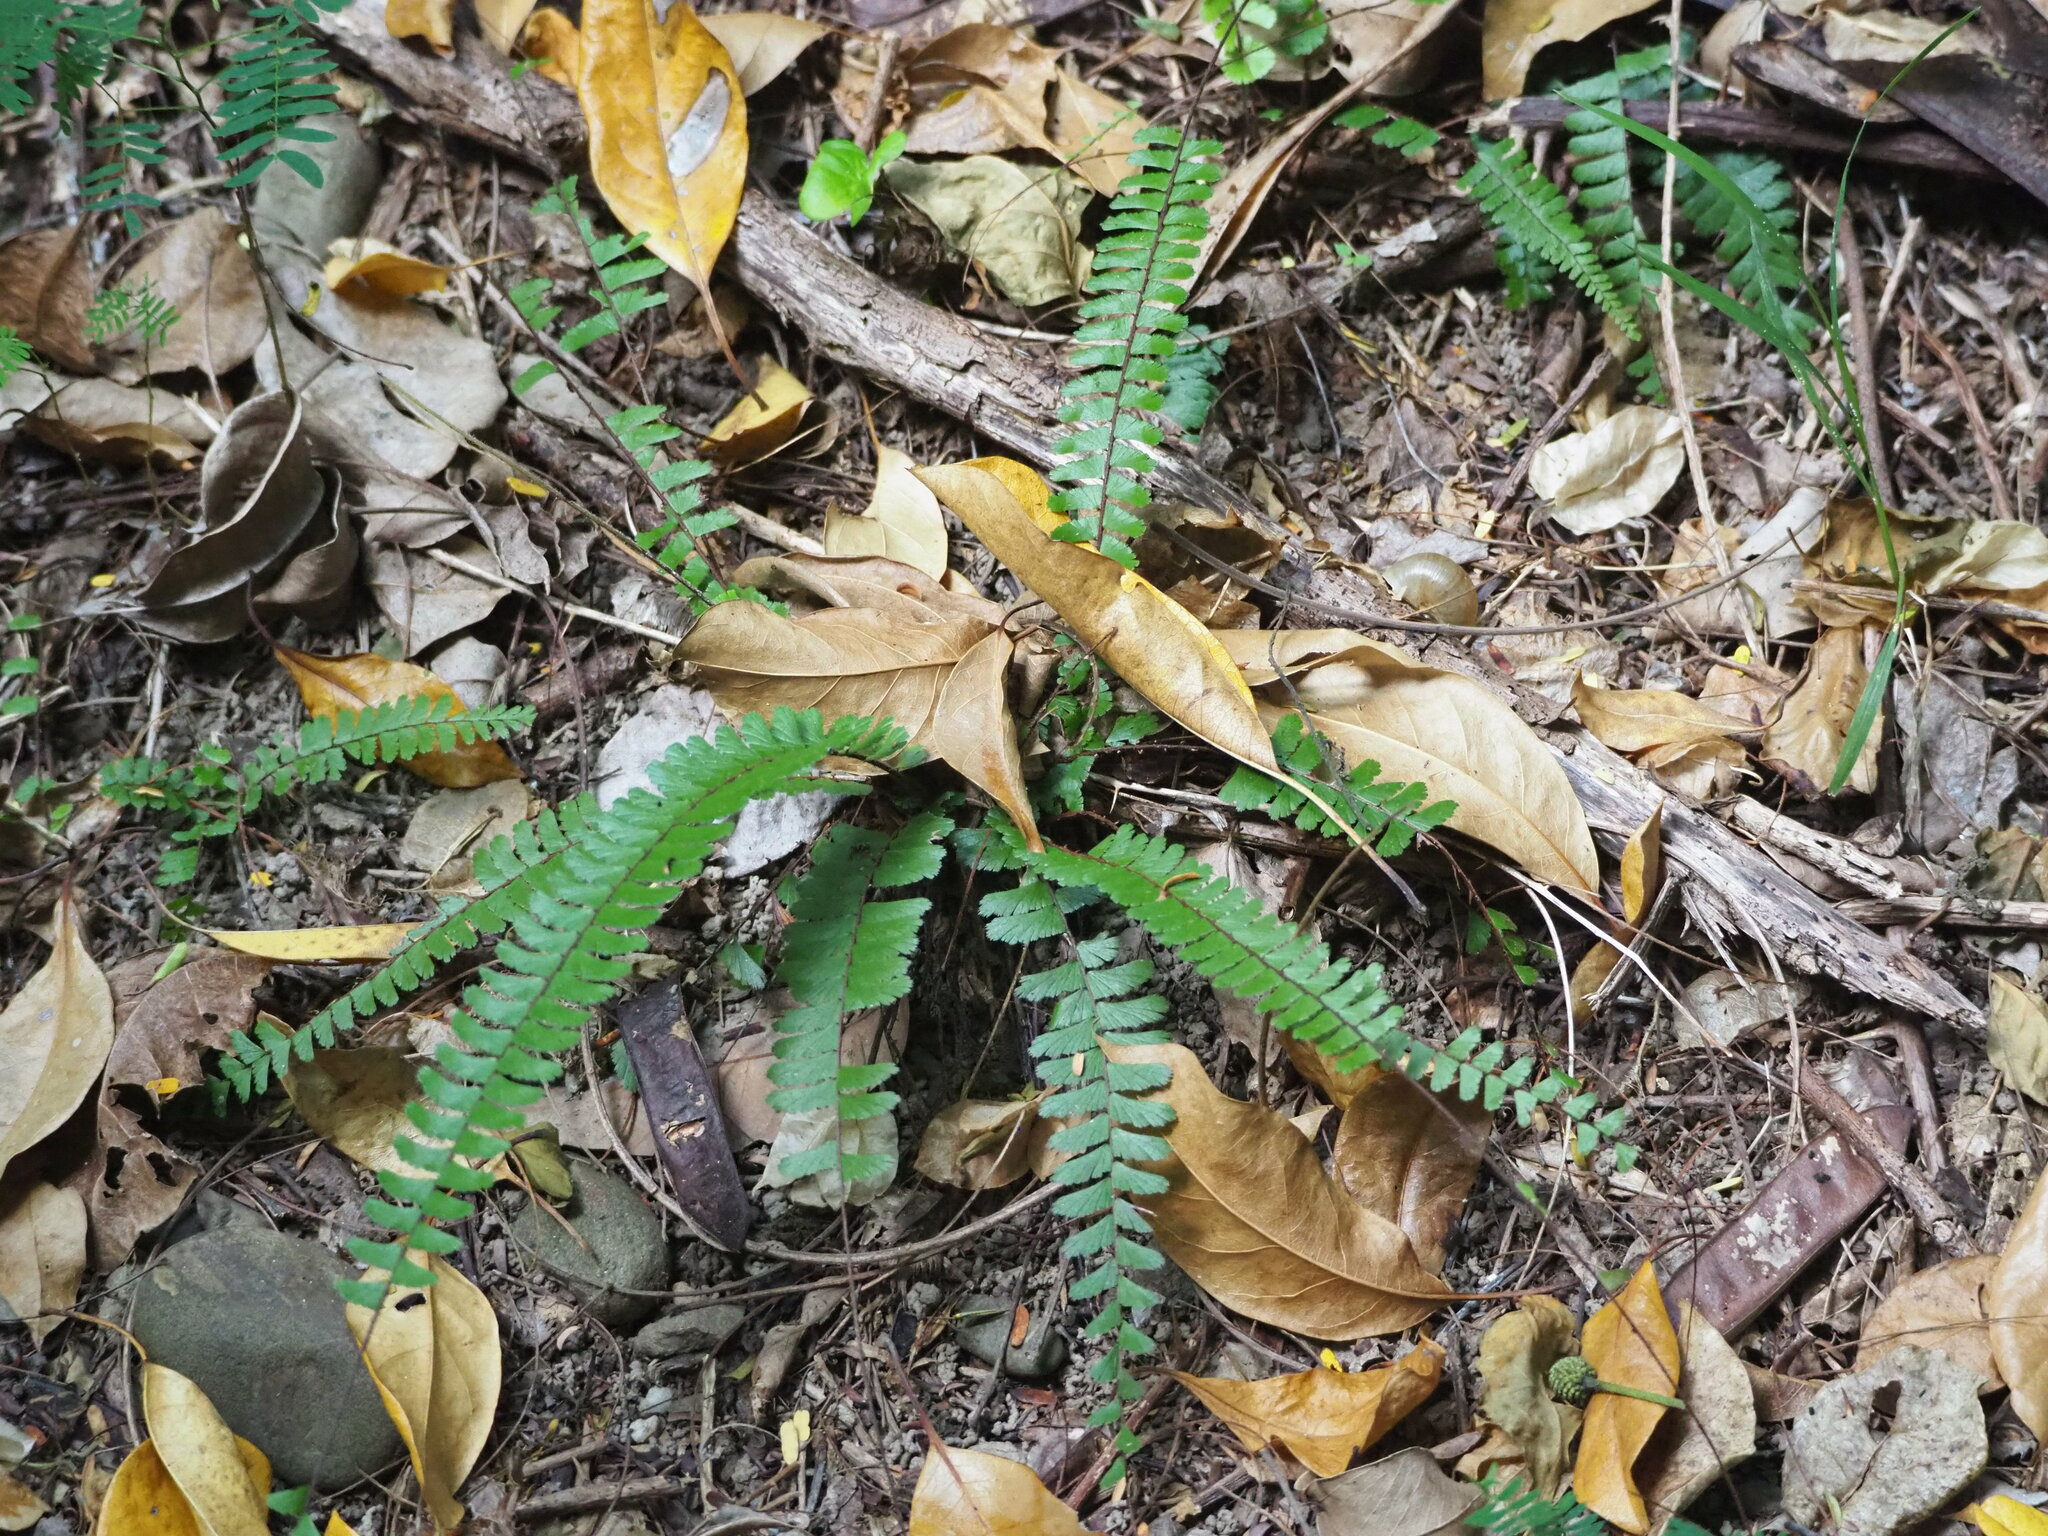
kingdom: Plantae
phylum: Tracheophyta
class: Polypodiopsida
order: Polypodiales
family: Pteridaceae
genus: Adiantum
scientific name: Adiantum caudatum
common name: Tailed maidenhair
